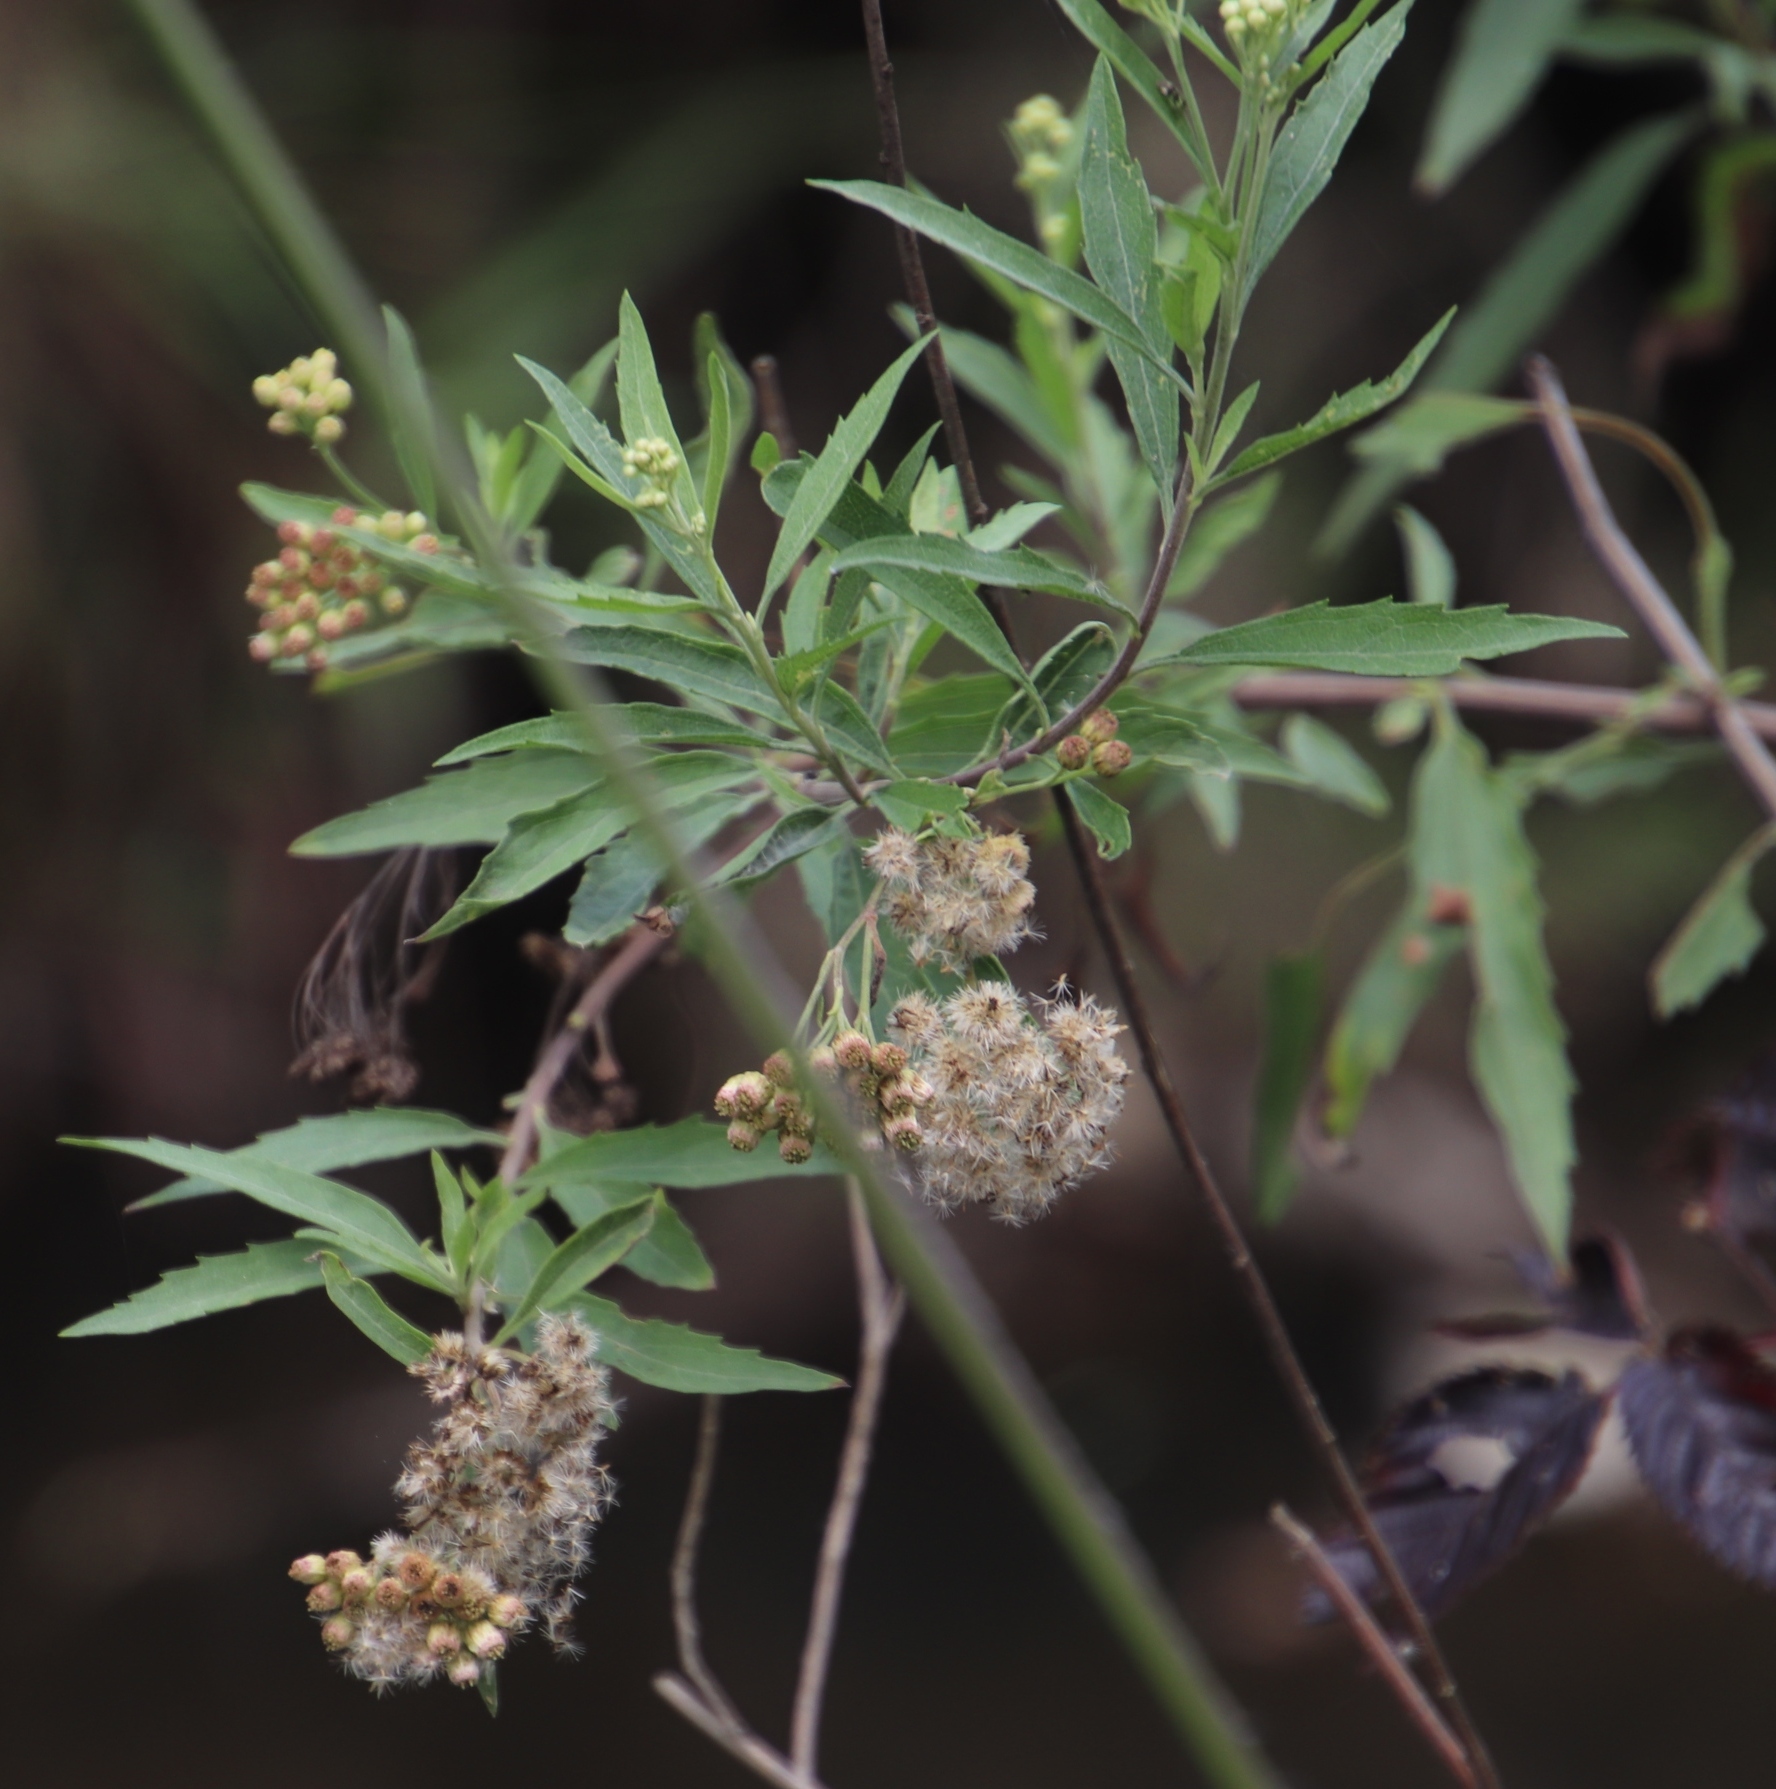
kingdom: Plantae
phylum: Tracheophyta
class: Magnoliopsida
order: Asterales
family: Asteraceae
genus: Nidorella
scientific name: Nidorella ivifolia
